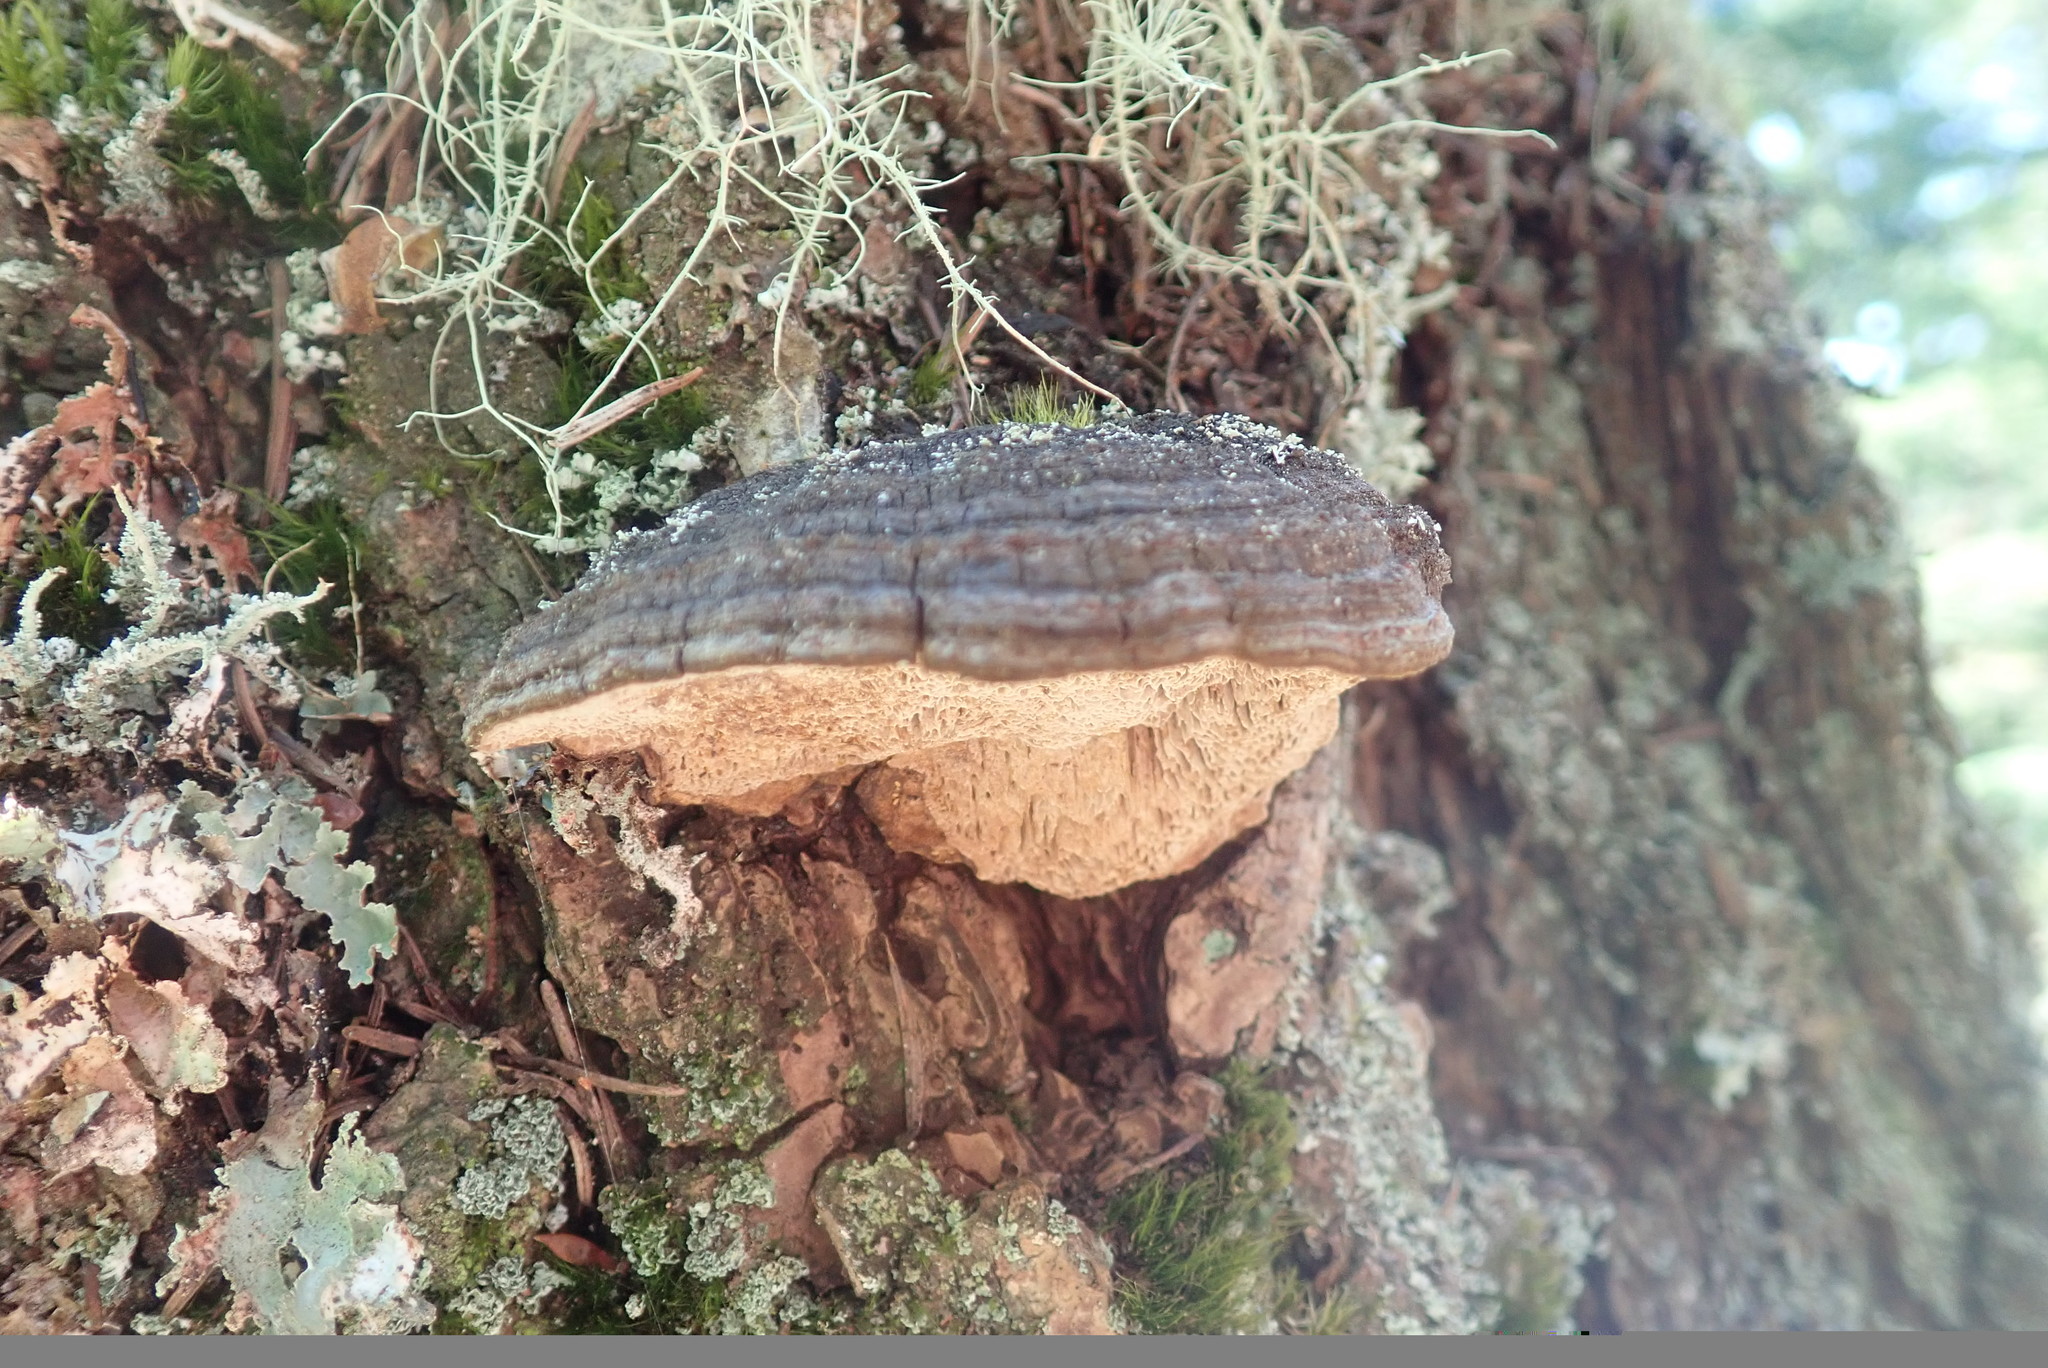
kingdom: Fungi
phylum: Basidiomycota
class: Agaricomycetes
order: Hymenochaetales
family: Hymenochaetaceae
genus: Porodaedalea
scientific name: Porodaedalea pini
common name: Pine bracket
